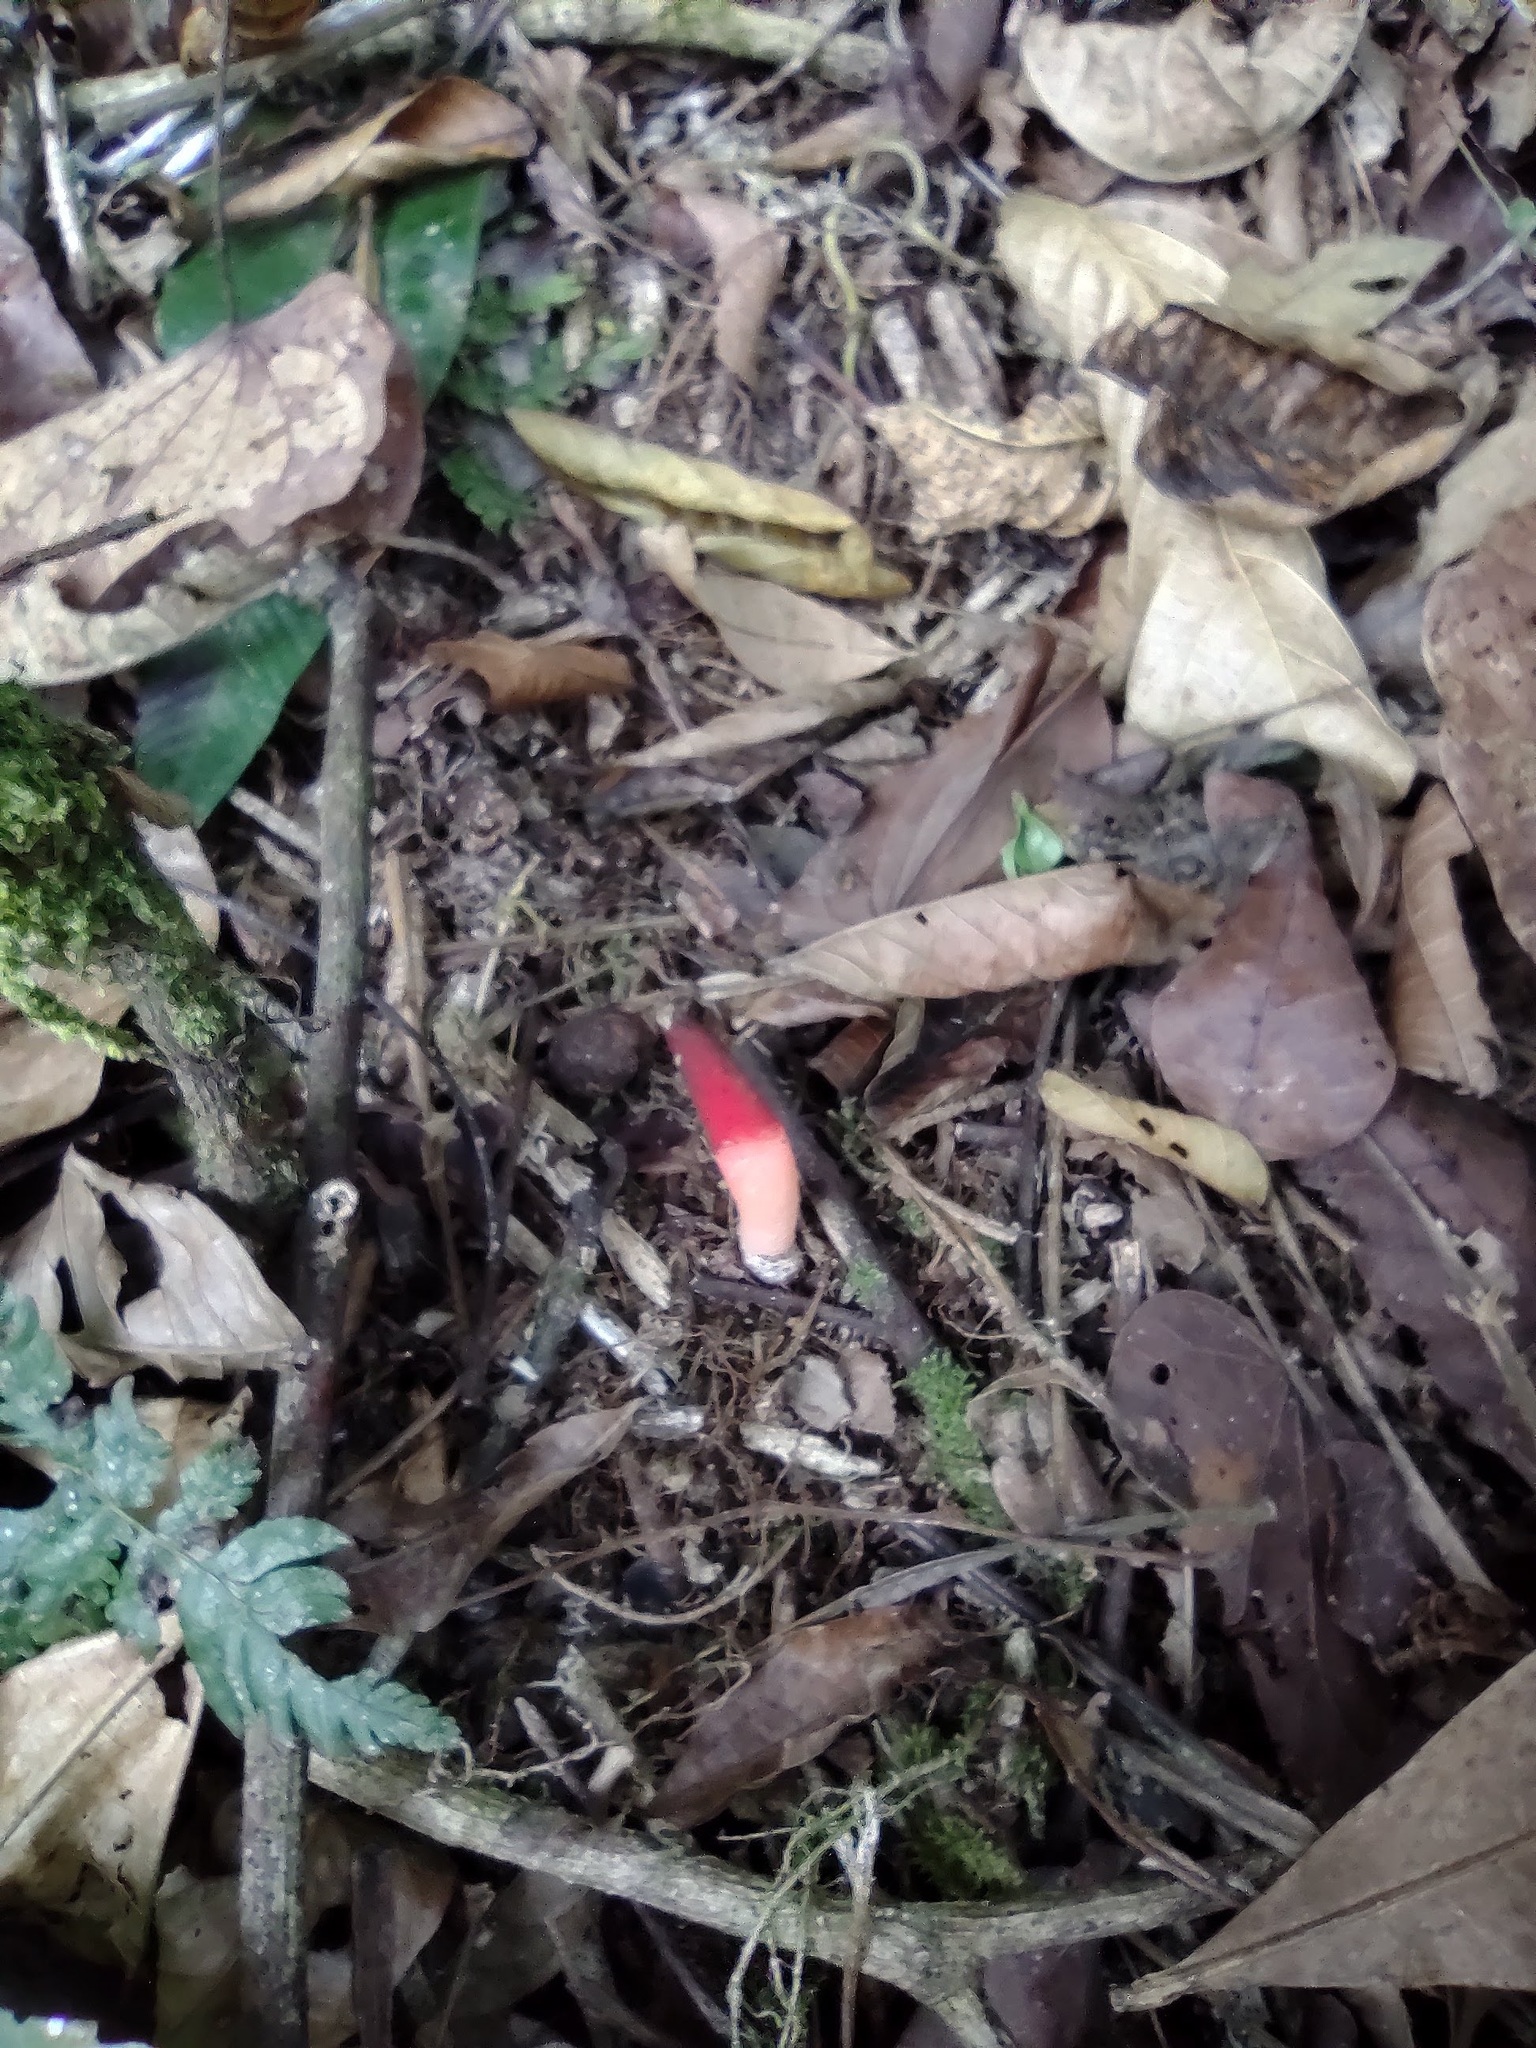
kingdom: Fungi
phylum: Basidiomycota
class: Agaricomycetes
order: Phallales
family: Phallaceae
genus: Mutinus
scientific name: Mutinus argentinus
